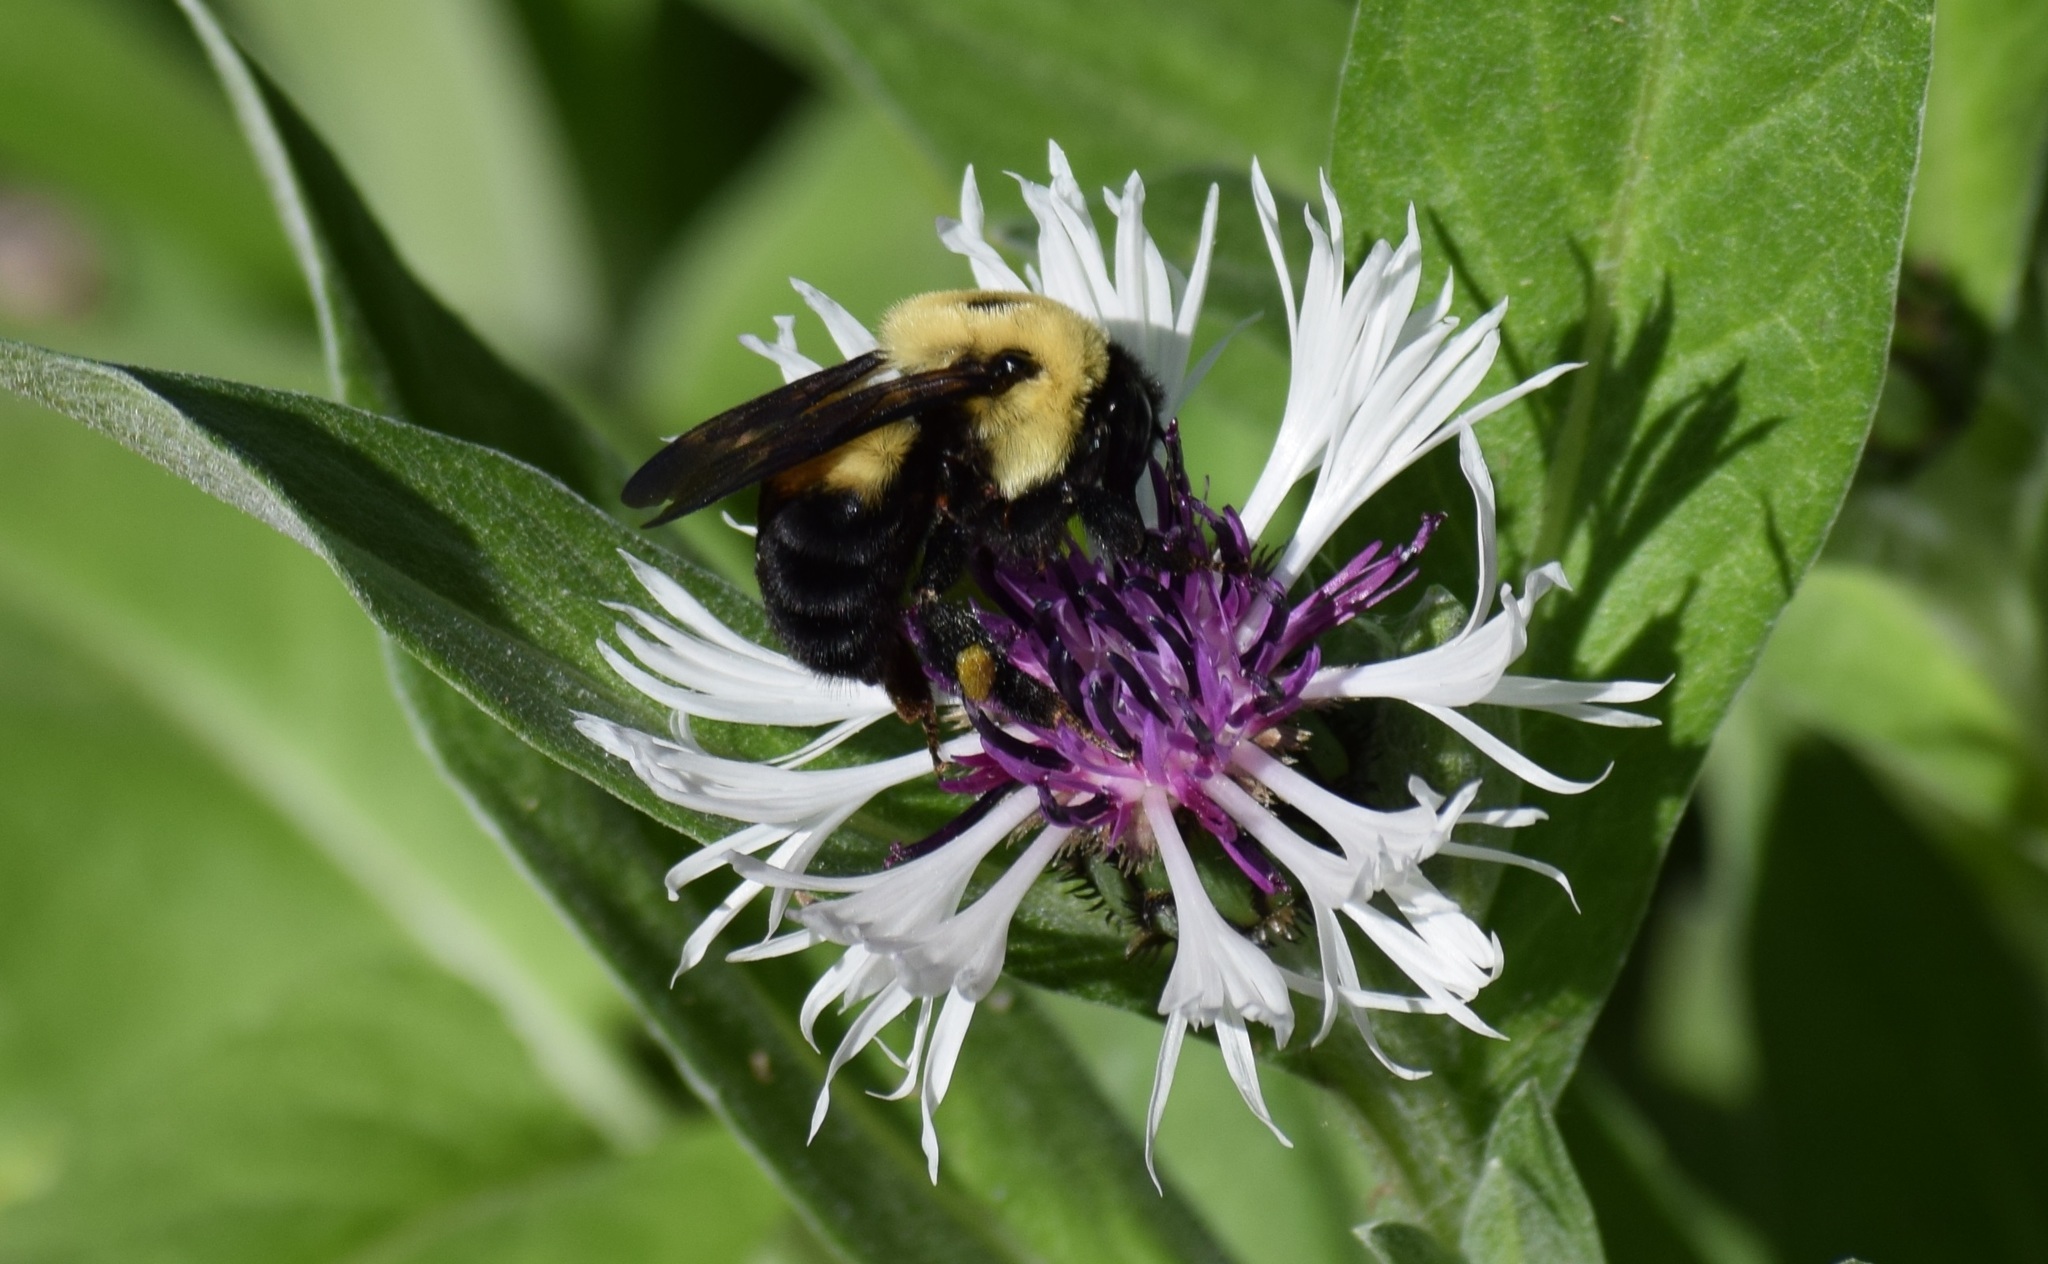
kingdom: Animalia
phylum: Arthropoda
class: Insecta
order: Hymenoptera
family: Apidae
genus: Bombus
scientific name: Bombus griseocollis
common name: Brown-belted bumble bee
